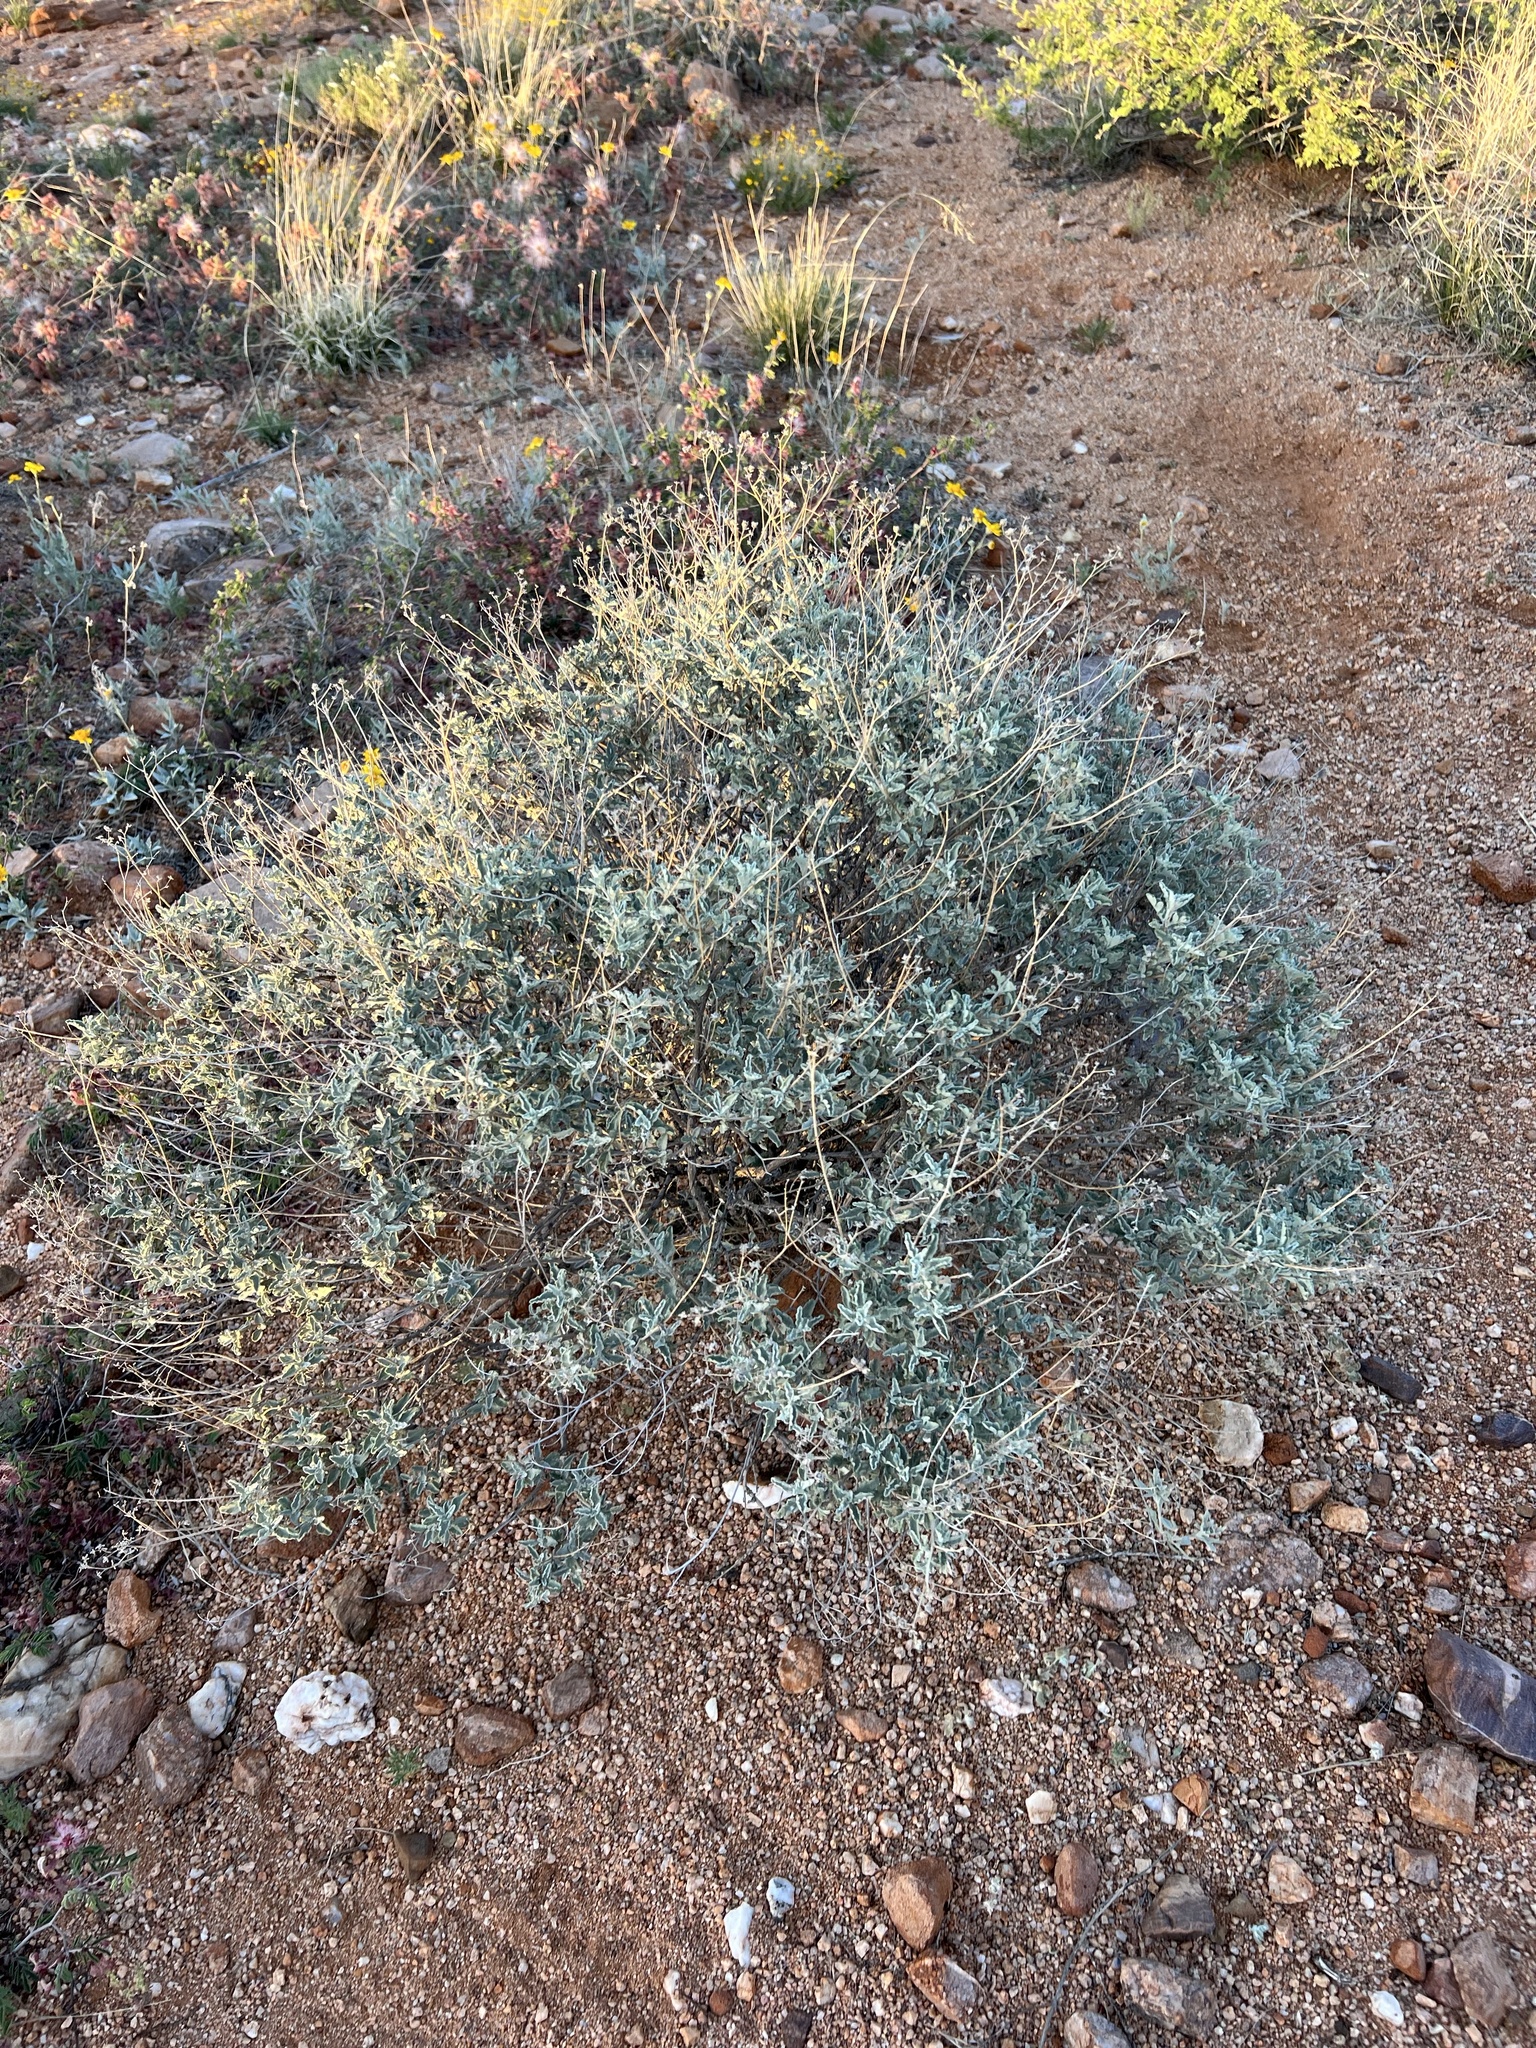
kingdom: Plantae
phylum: Tracheophyta
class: Magnoliopsida
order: Asterales
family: Asteraceae
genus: Parthenium
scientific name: Parthenium incanum
